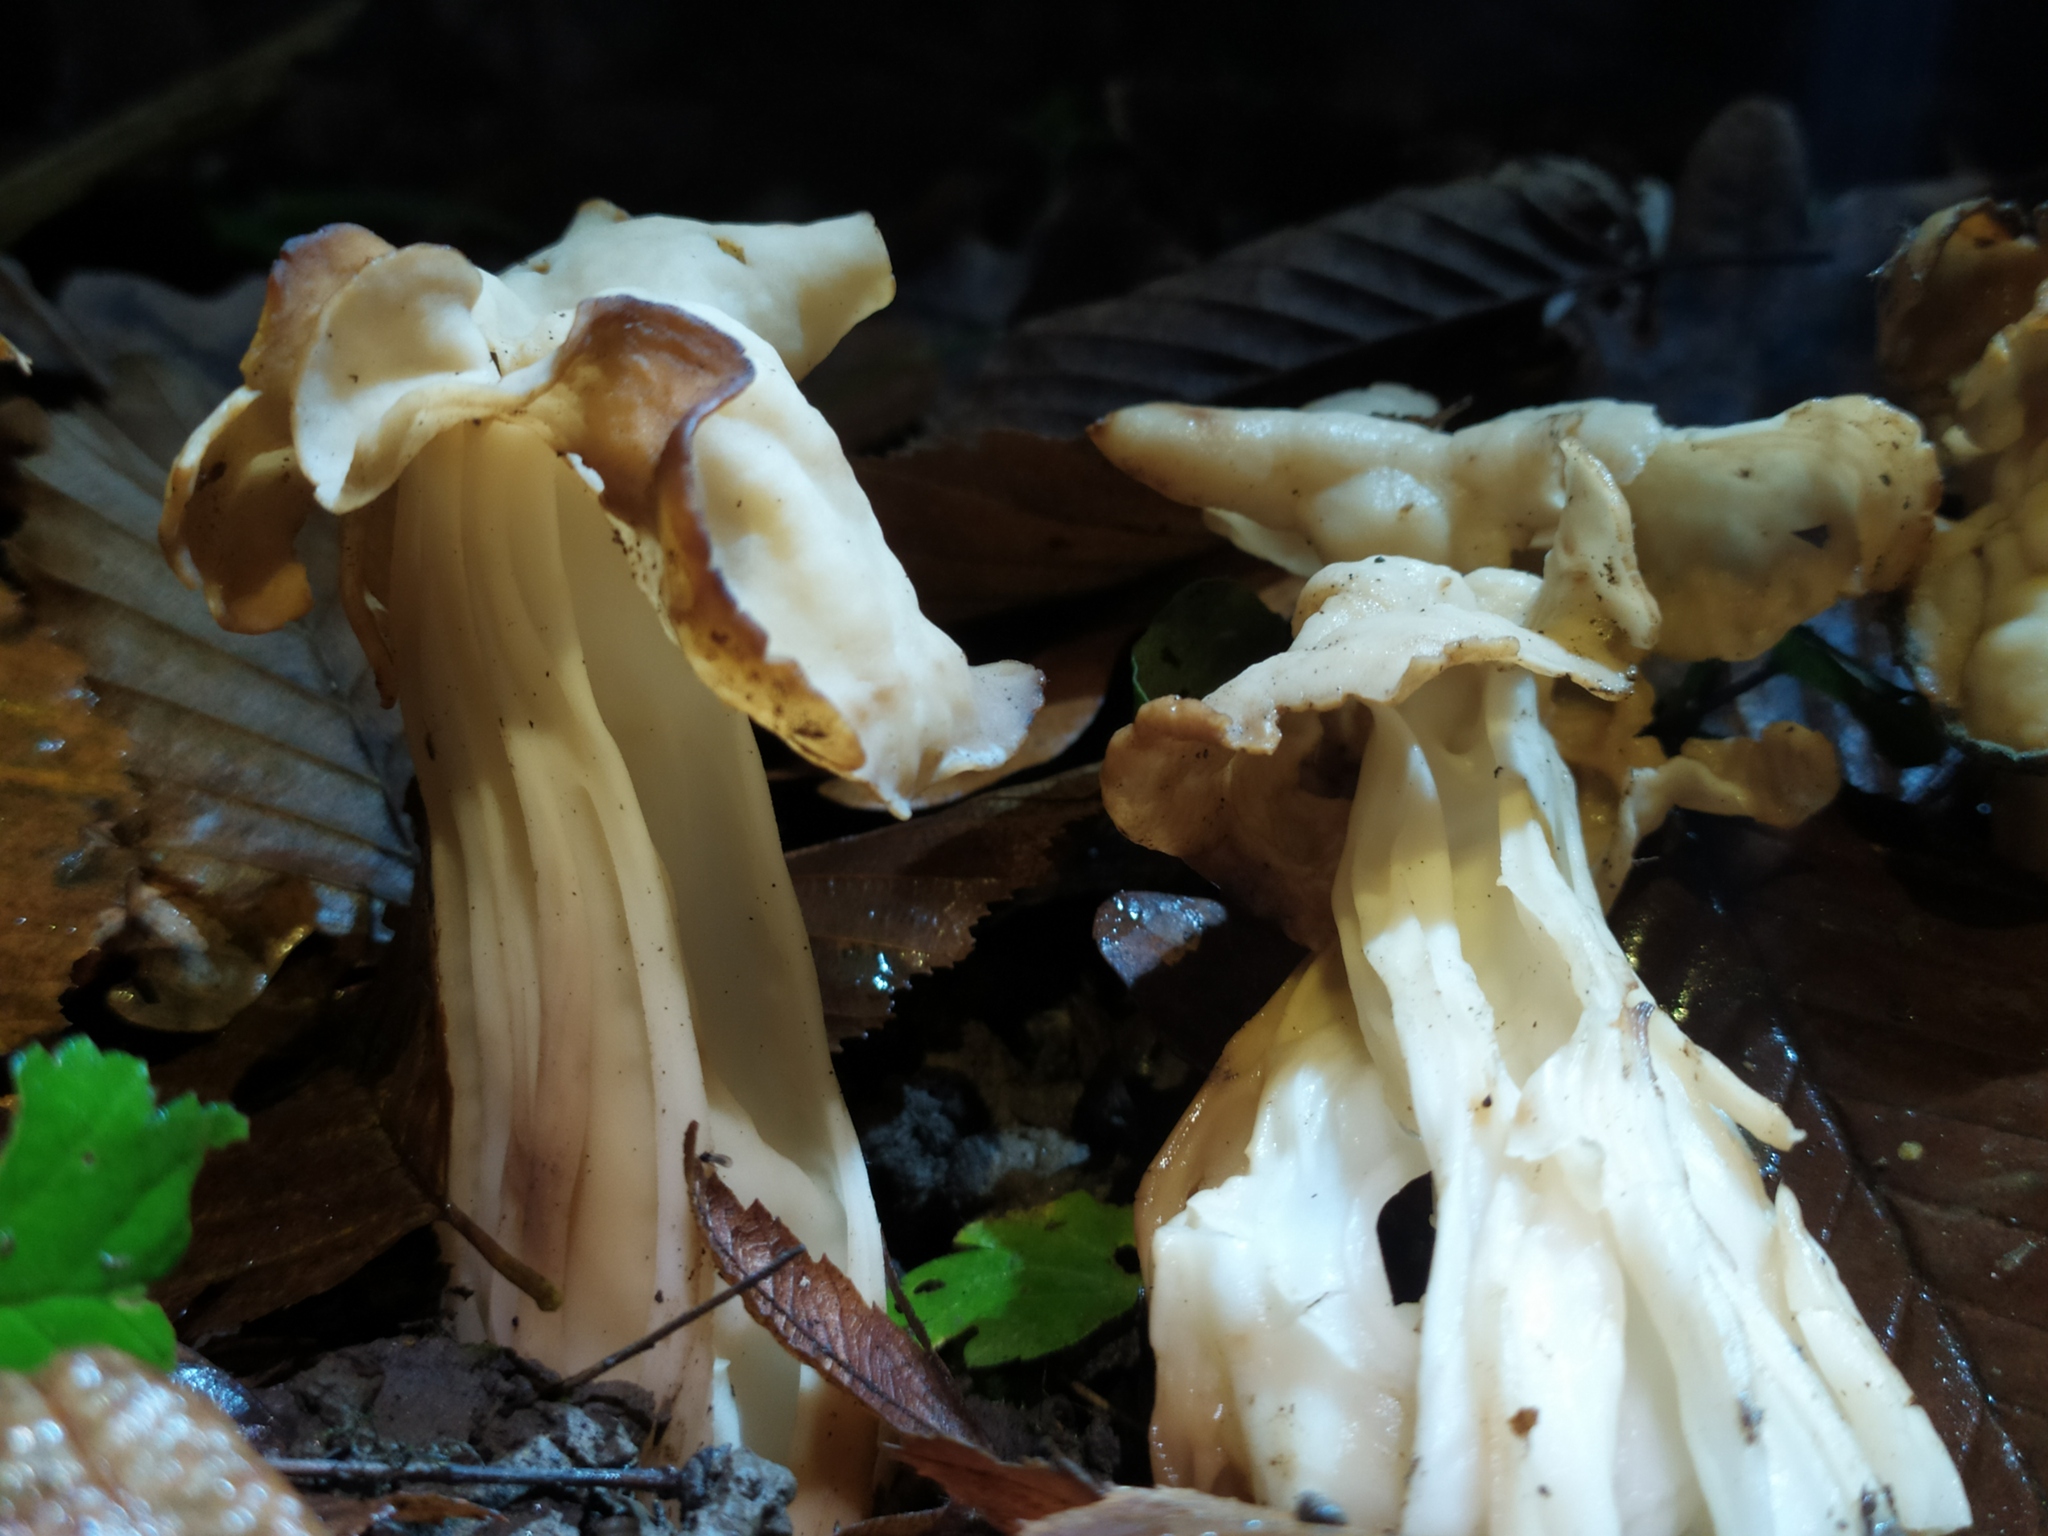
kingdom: Fungi
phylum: Ascomycota
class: Pezizomycetes
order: Pezizales
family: Helvellaceae
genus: Helvella
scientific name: Helvella crispa
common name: White saddle
